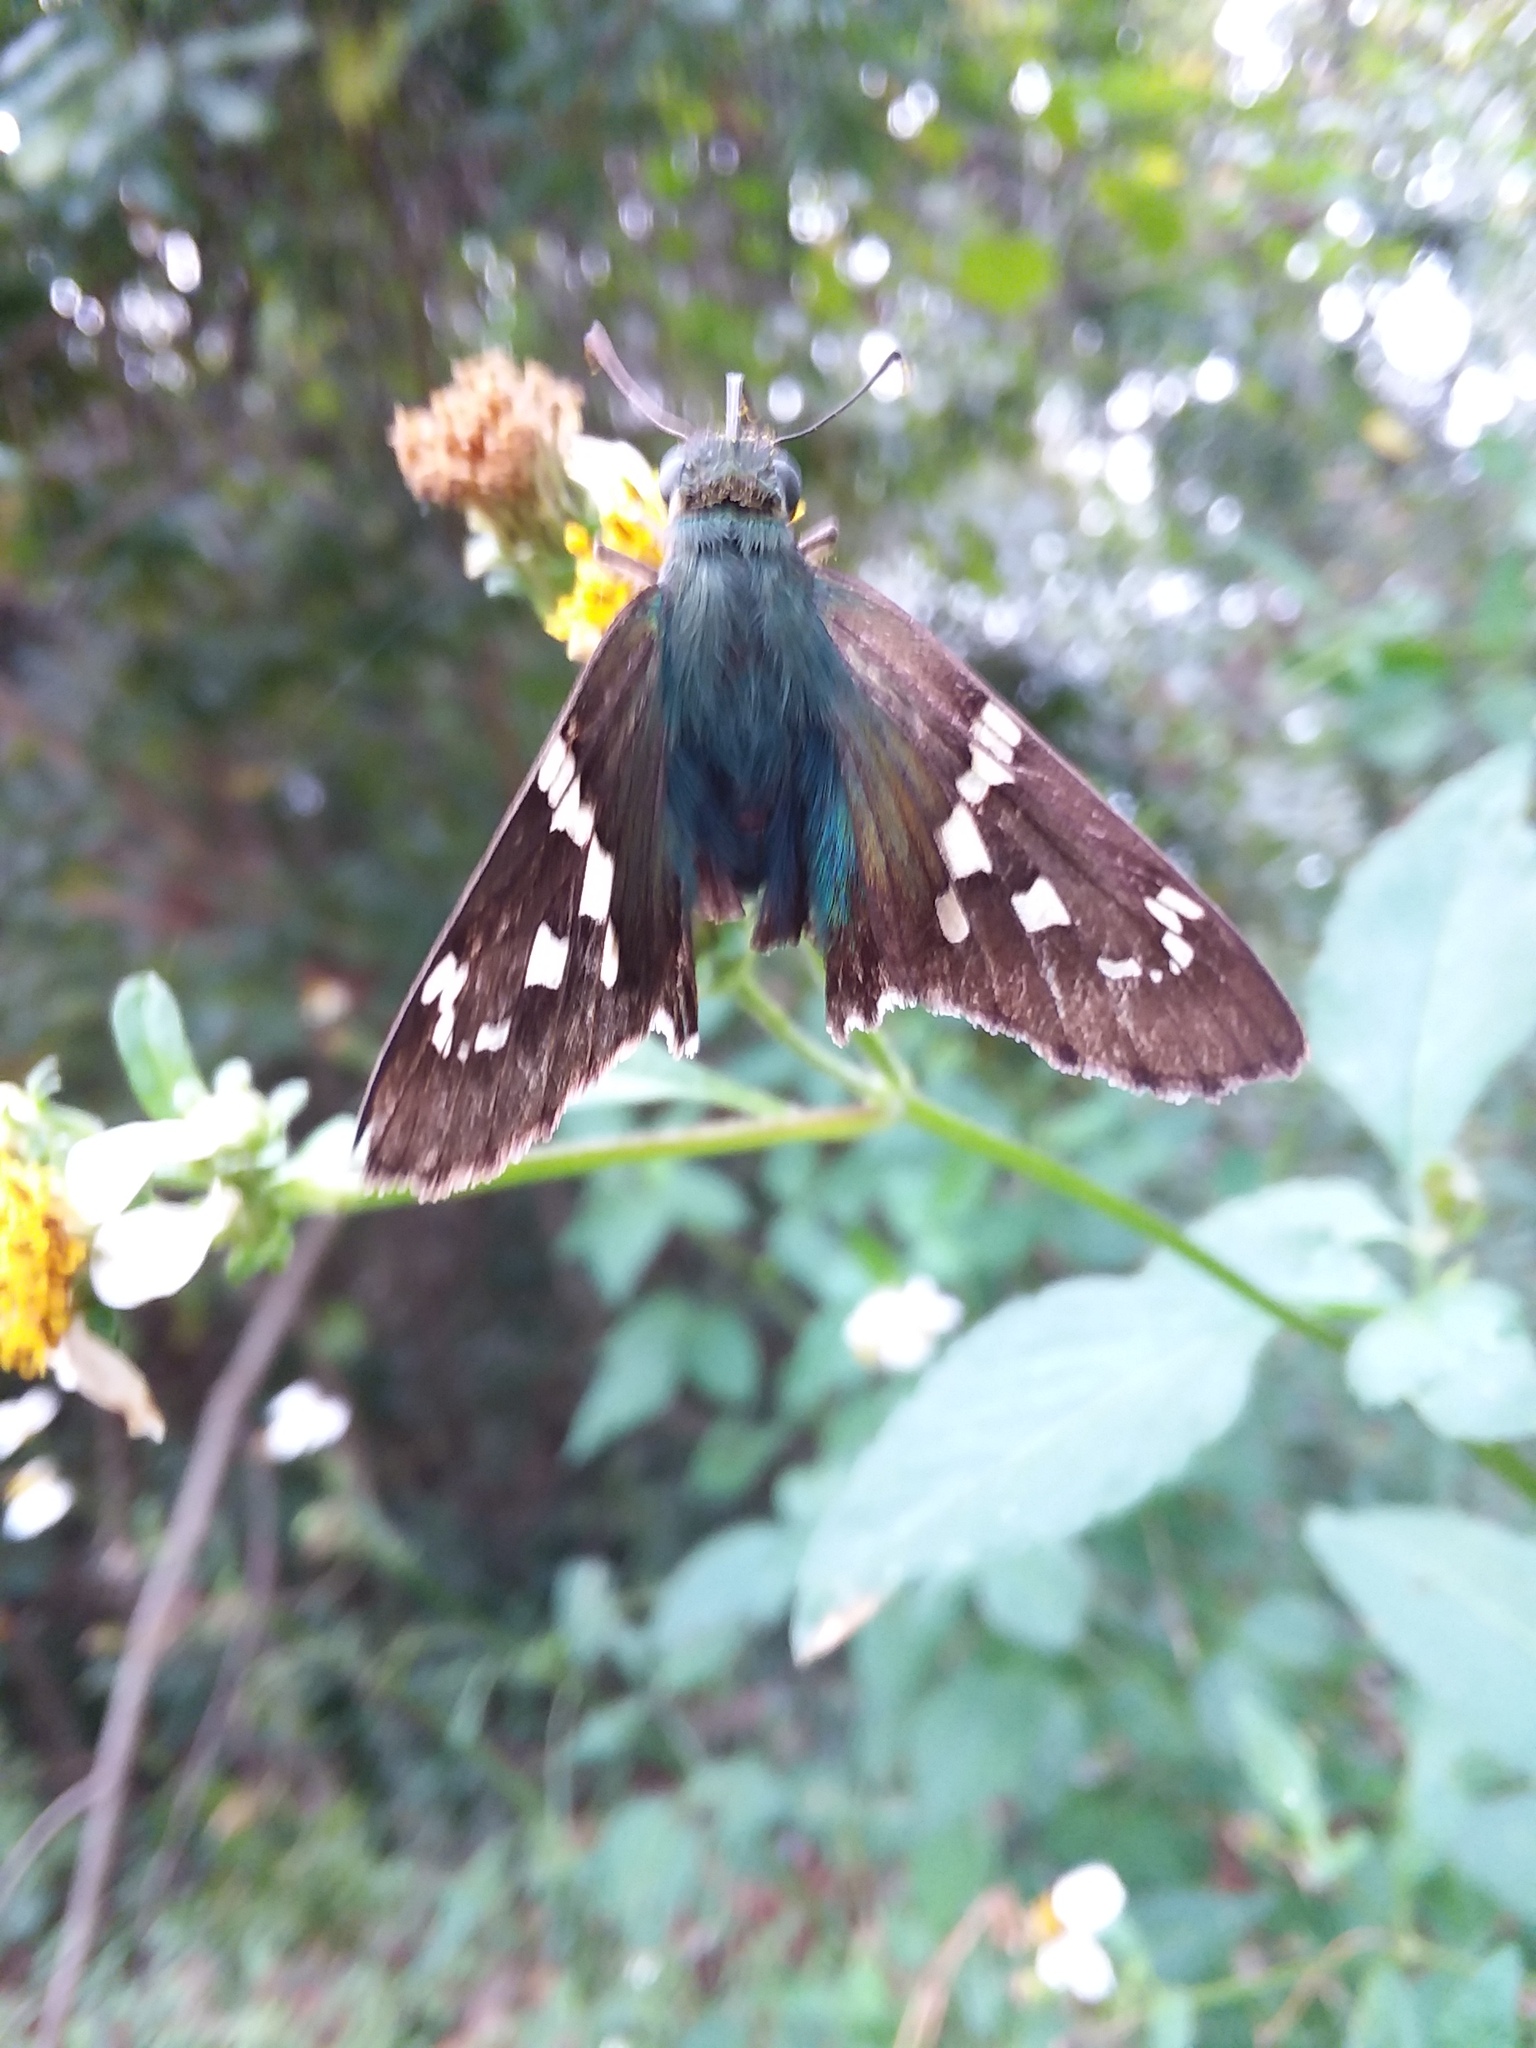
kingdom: Animalia
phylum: Arthropoda
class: Insecta
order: Lepidoptera
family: Hesperiidae
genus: Urbanus
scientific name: Urbanus proteus
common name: Long-tailed skipper
